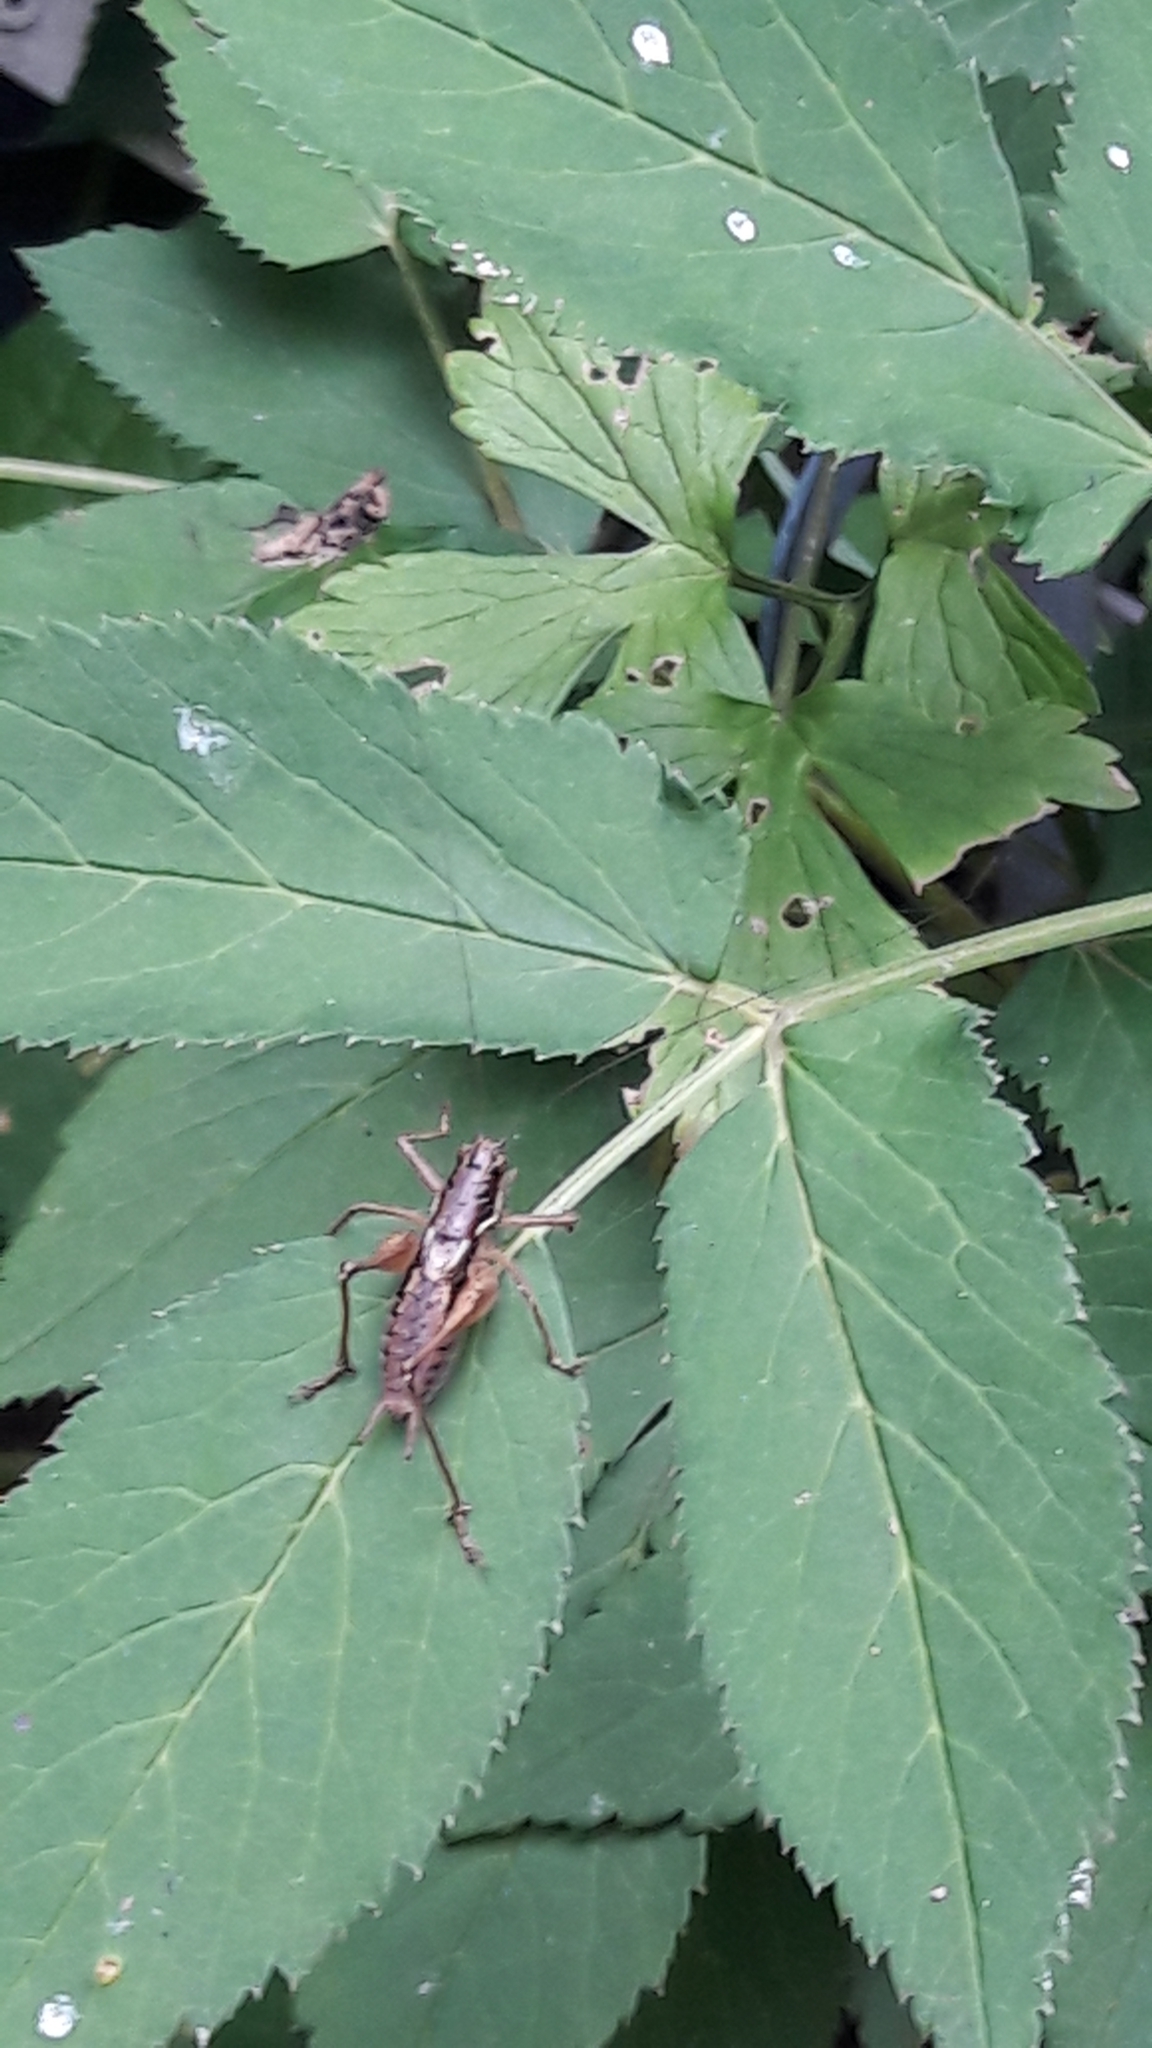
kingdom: Animalia
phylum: Arthropoda
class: Insecta
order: Orthoptera
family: Tettigoniidae
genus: Pachytrachis
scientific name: Pachytrachis gracilis
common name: Graceful bush-cricket
